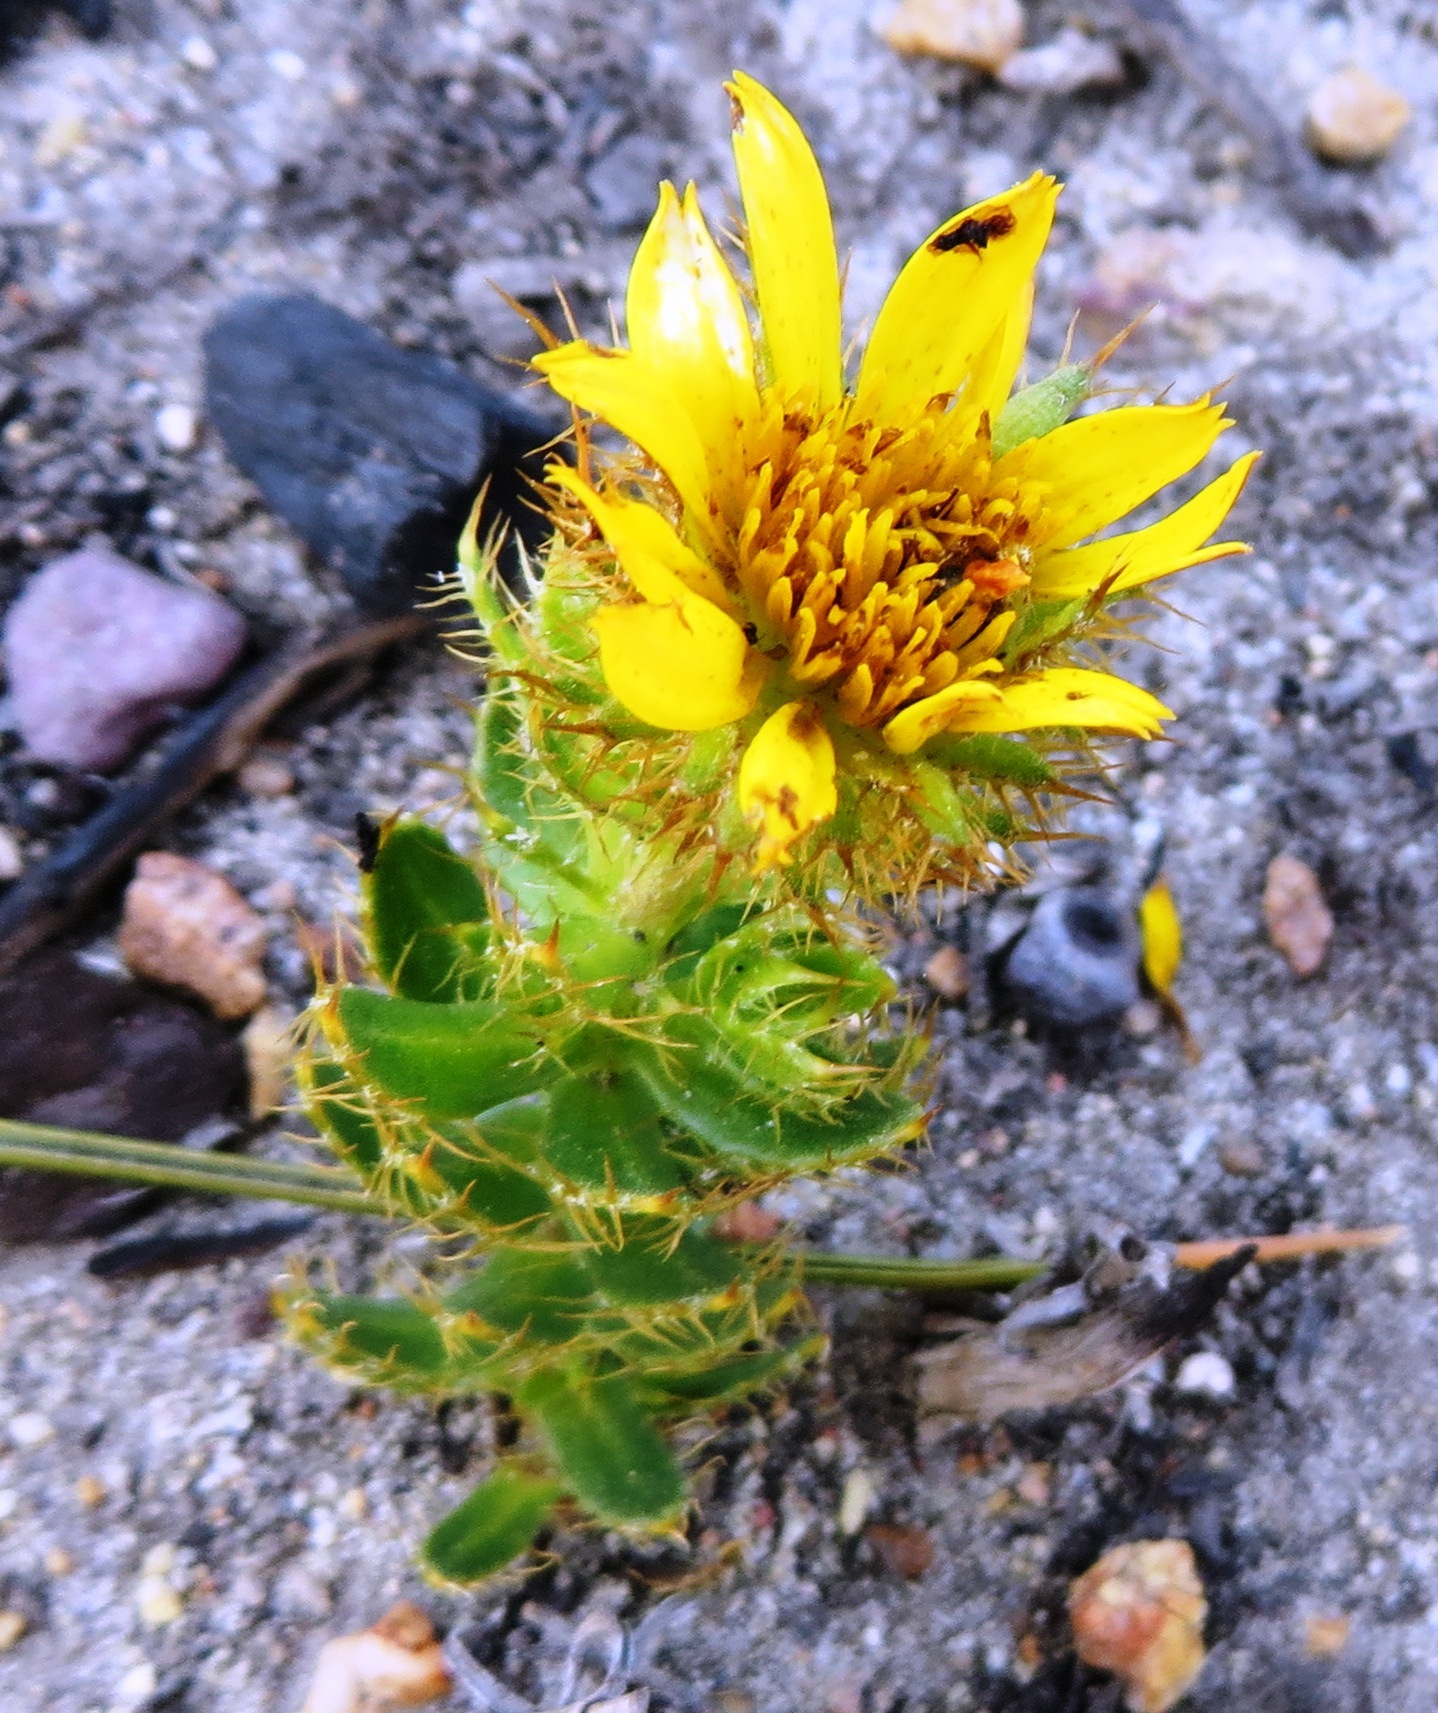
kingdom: Plantae
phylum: Tracheophyta
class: Magnoliopsida
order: Asterales
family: Asteraceae
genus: Cullumia
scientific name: Cullumia selago
